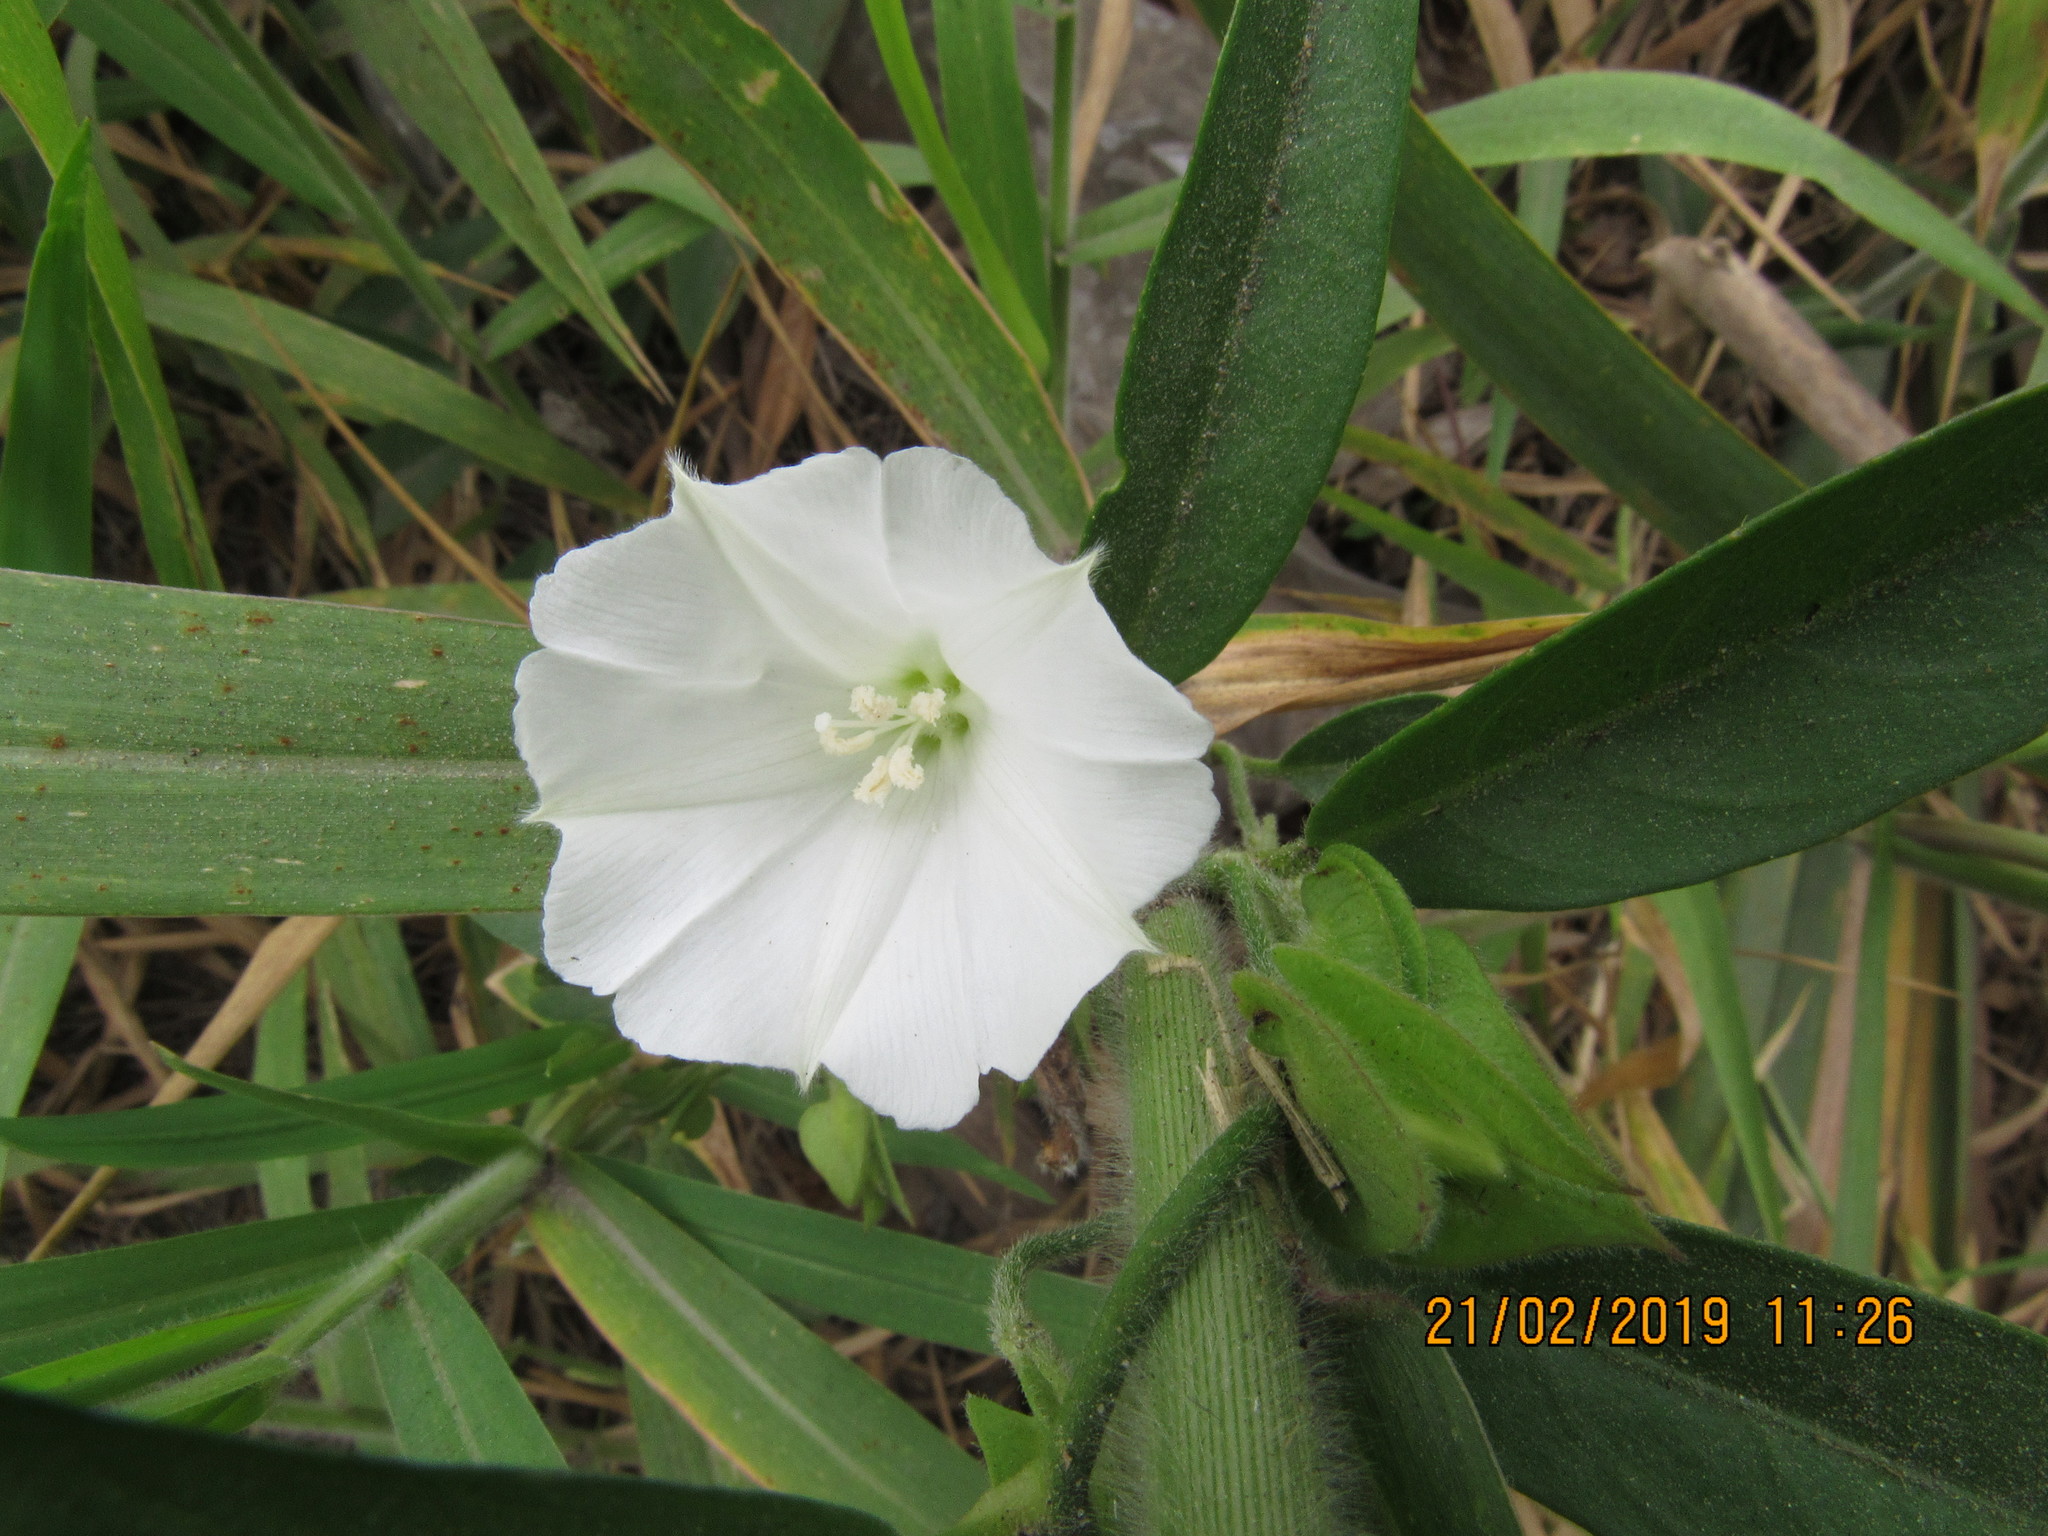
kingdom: Plantae
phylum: Tracheophyta
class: Magnoliopsida
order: Solanales
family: Convolvulaceae
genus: Aniseia
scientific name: Aniseia martinicensis
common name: Kulayadambu
